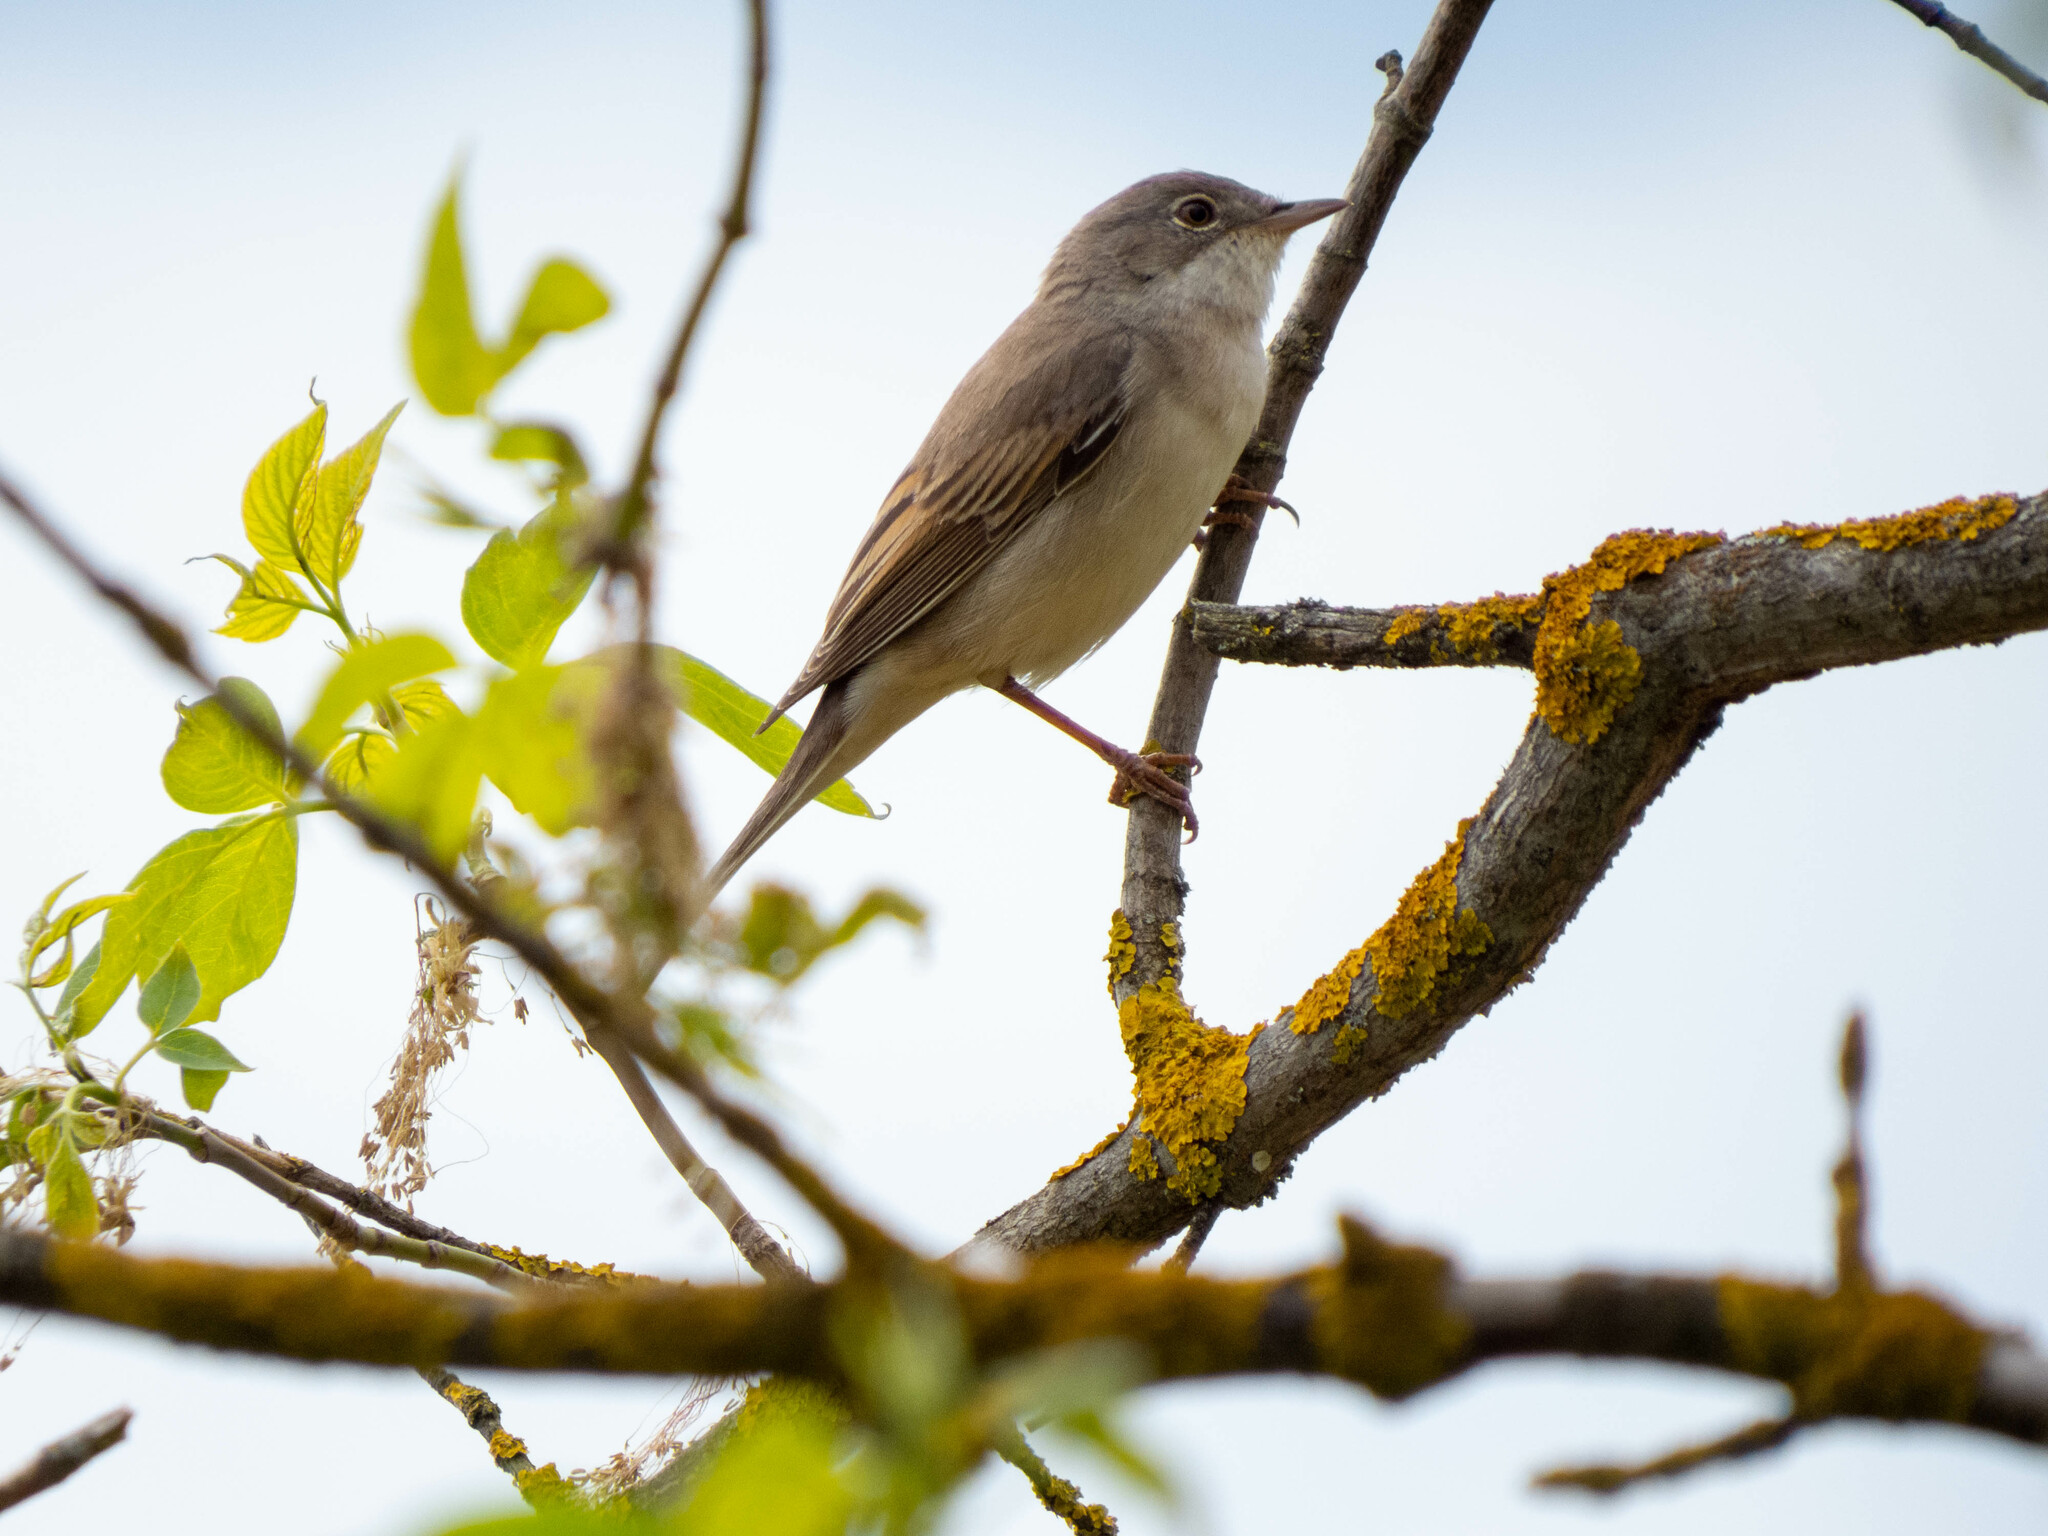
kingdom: Animalia
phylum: Chordata
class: Aves
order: Passeriformes
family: Sylviidae
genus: Sylvia
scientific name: Sylvia communis
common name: Common whitethroat
